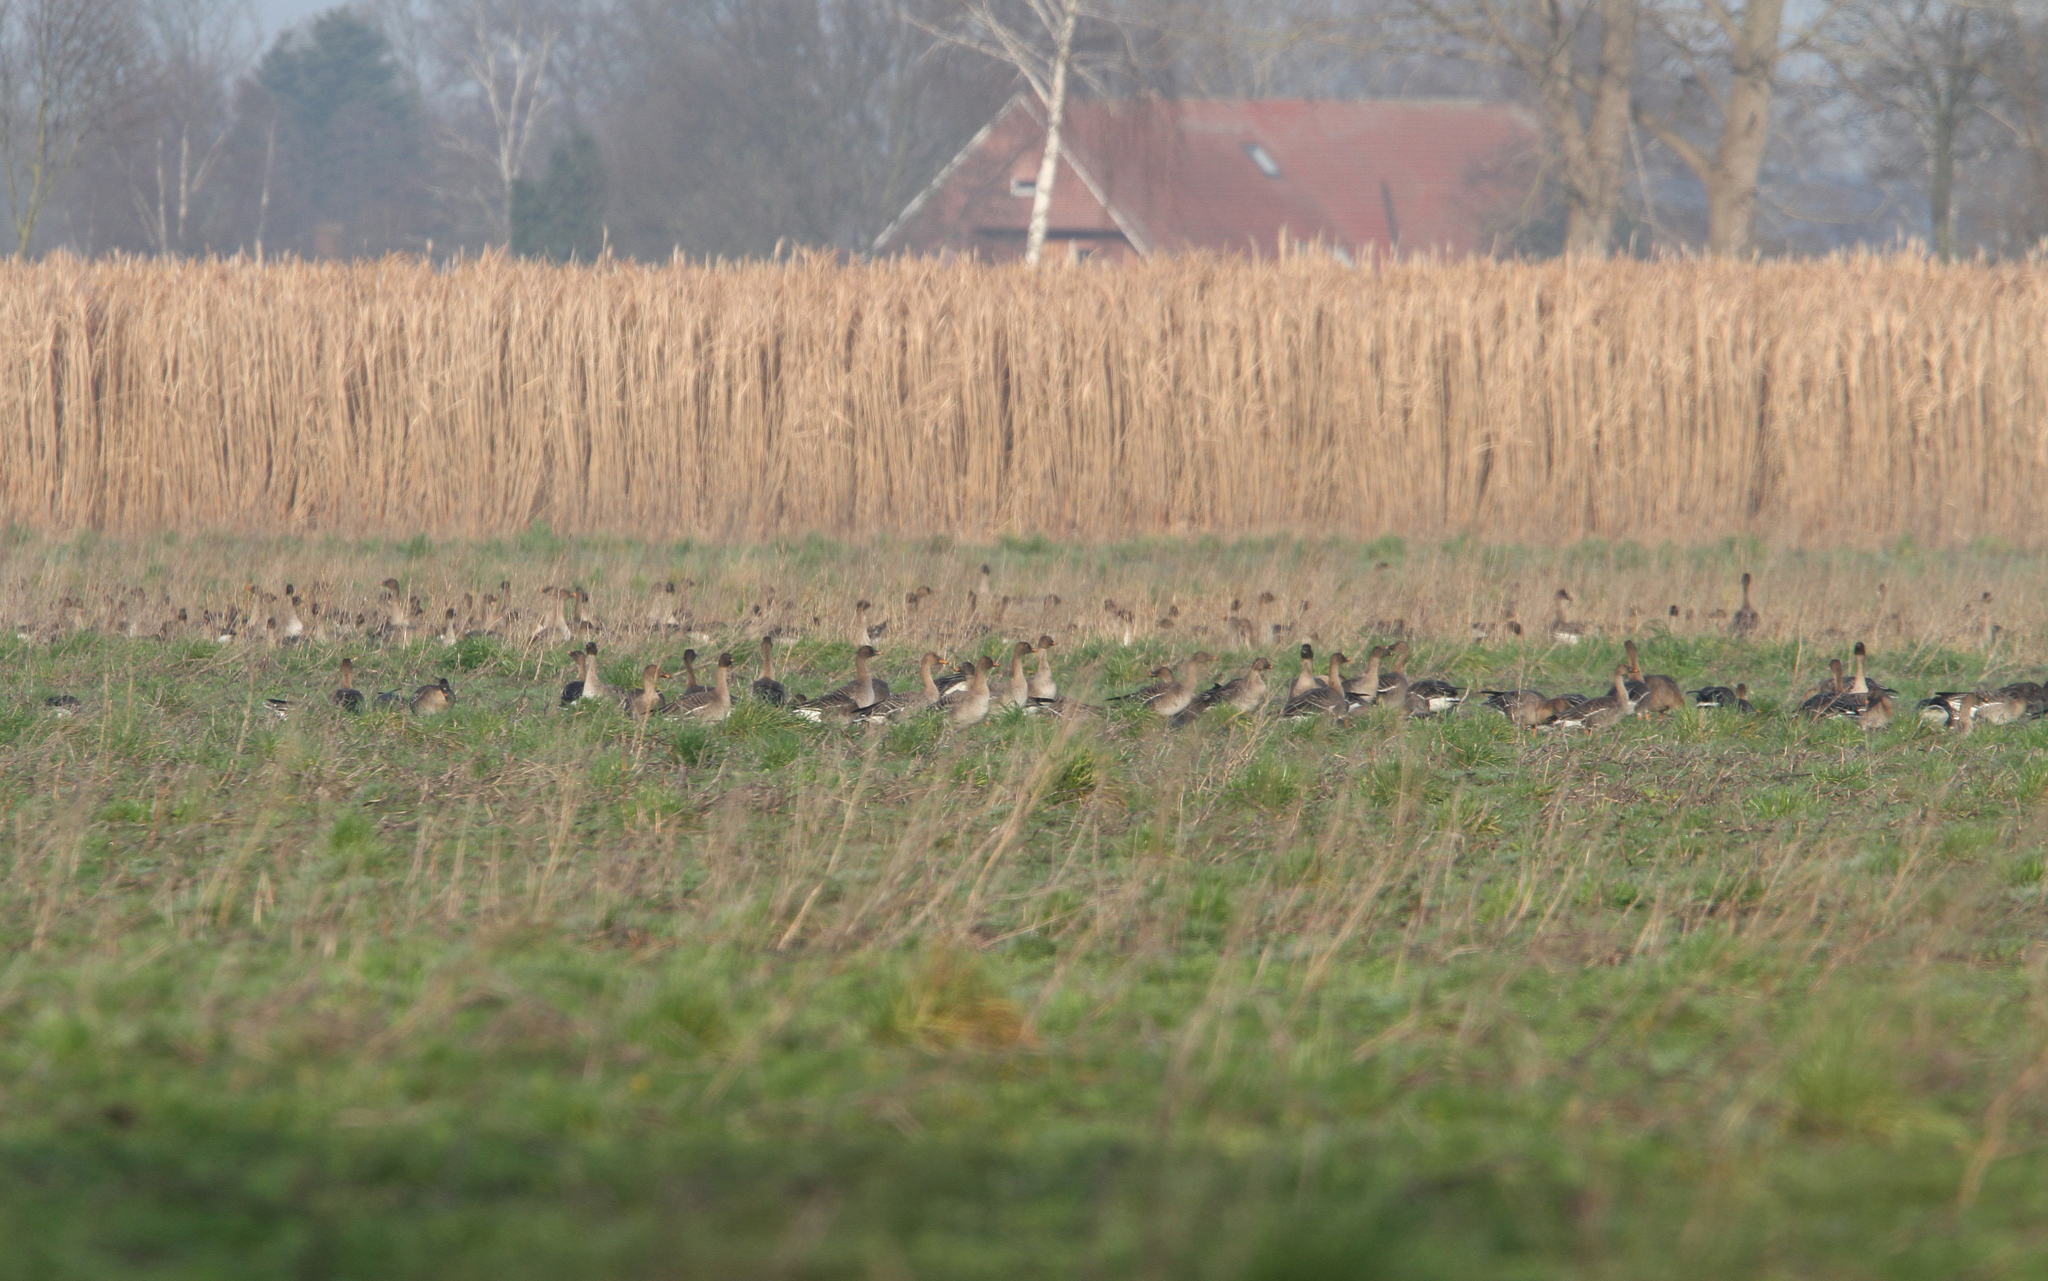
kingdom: Animalia
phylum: Chordata
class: Aves
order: Anseriformes
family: Anatidae
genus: Anser
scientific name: Anser serrirostris
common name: Tundra bean goose
